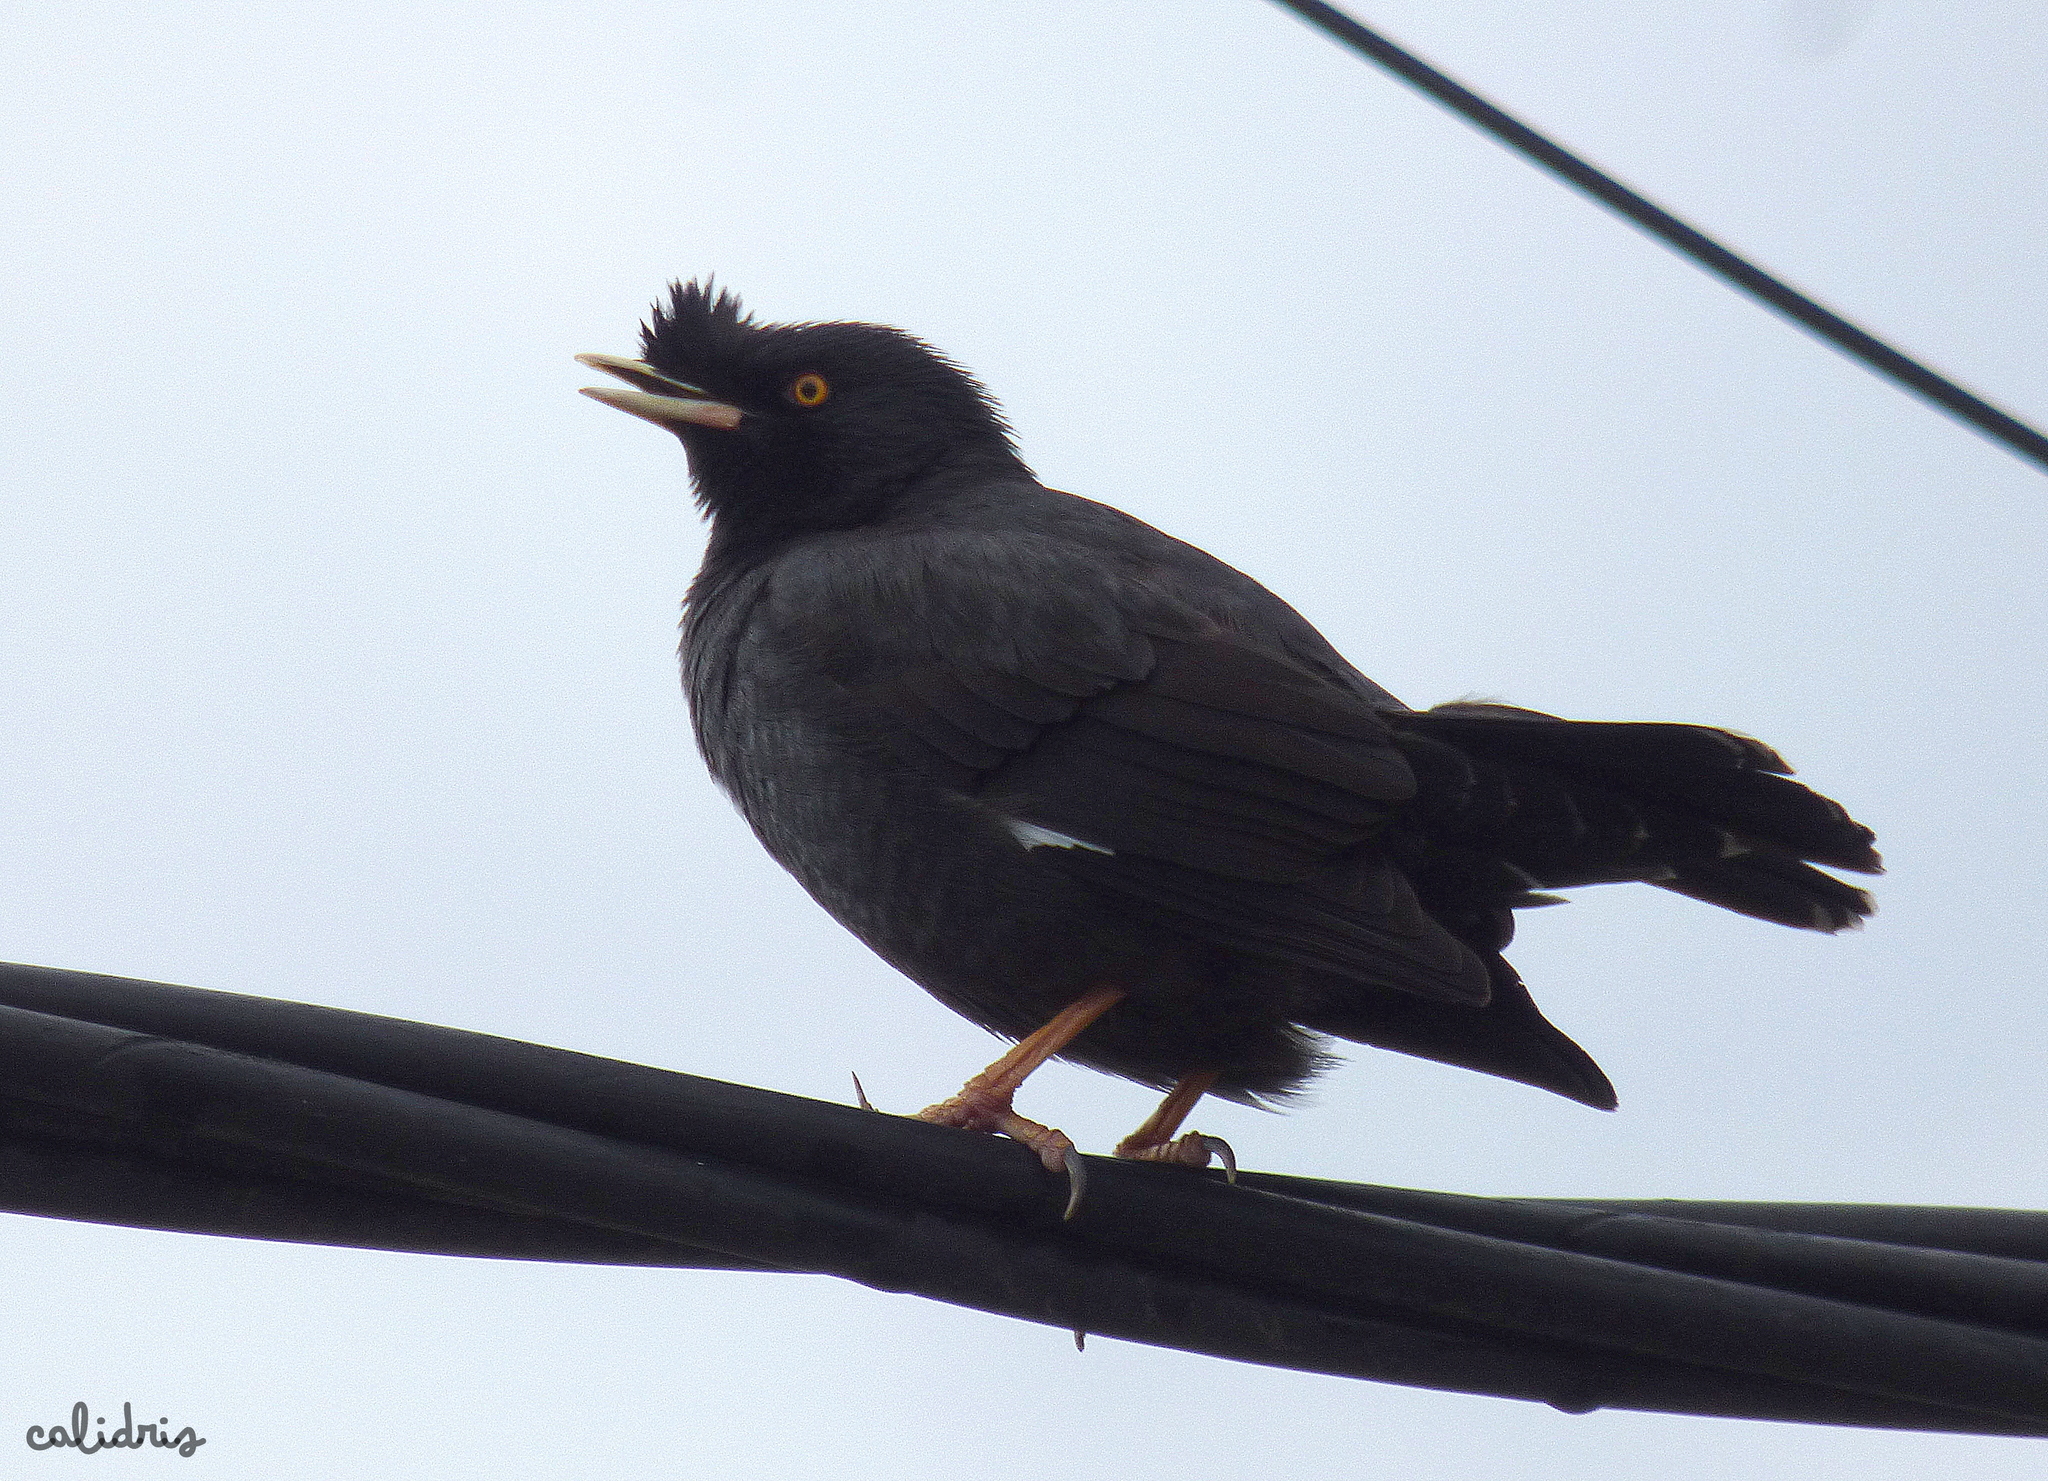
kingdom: Animalia
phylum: Chordata
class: Aves
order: Passeriformes
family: Sturnidae
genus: Acridotheres
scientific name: Acridotheres cristatellus
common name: Crested myna
